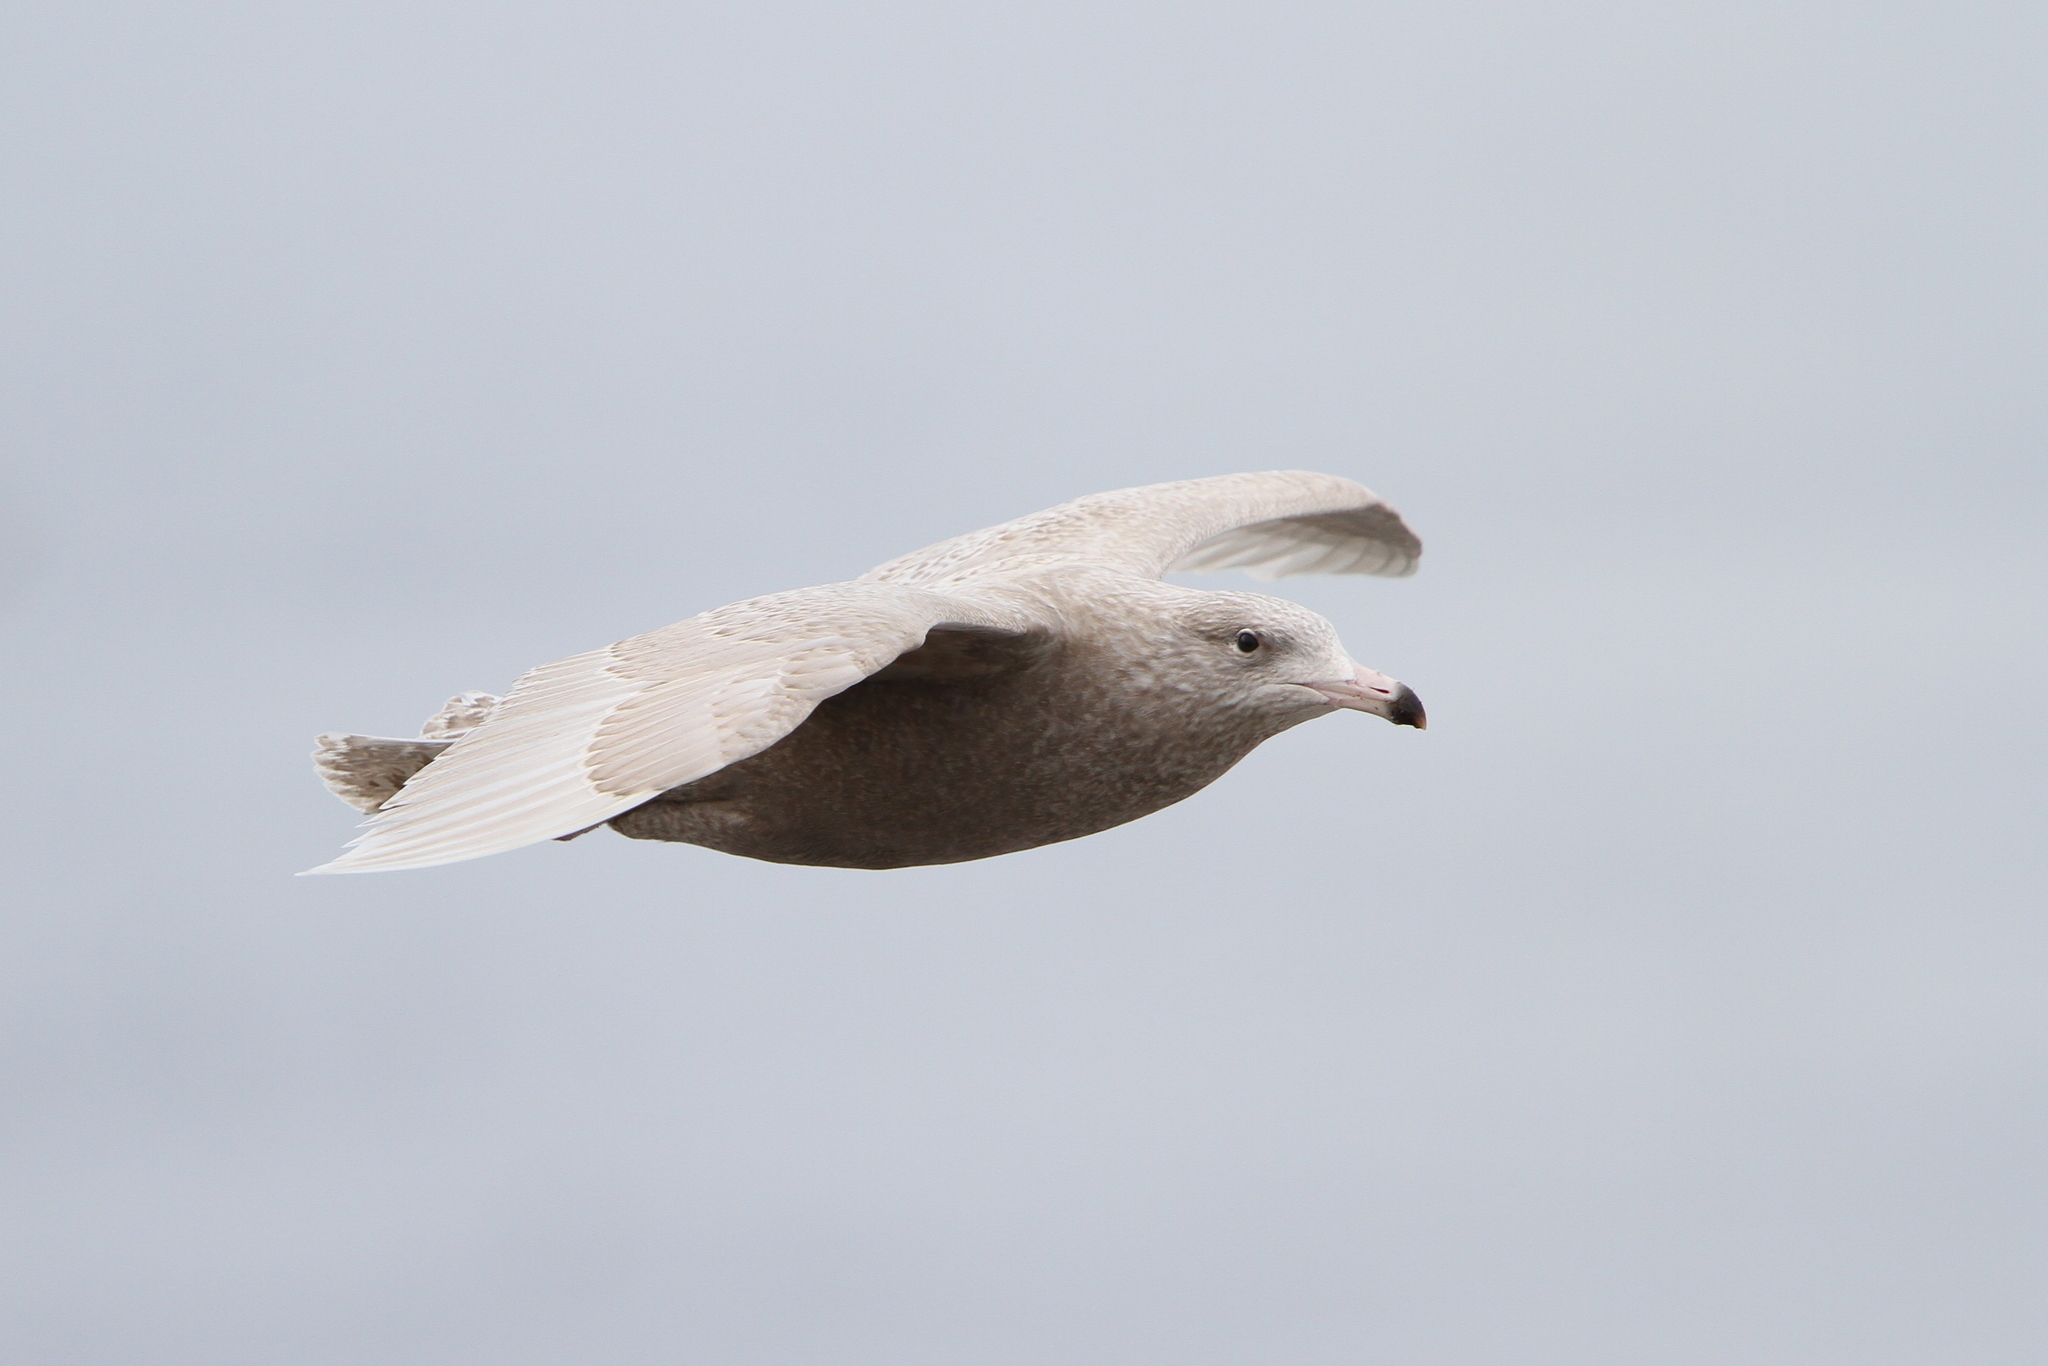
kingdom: Animalia
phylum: Chordata
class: Aves
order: Charadriiformes
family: Laridae
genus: Larus
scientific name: Larus hyperboreus
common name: Glaucous gull
